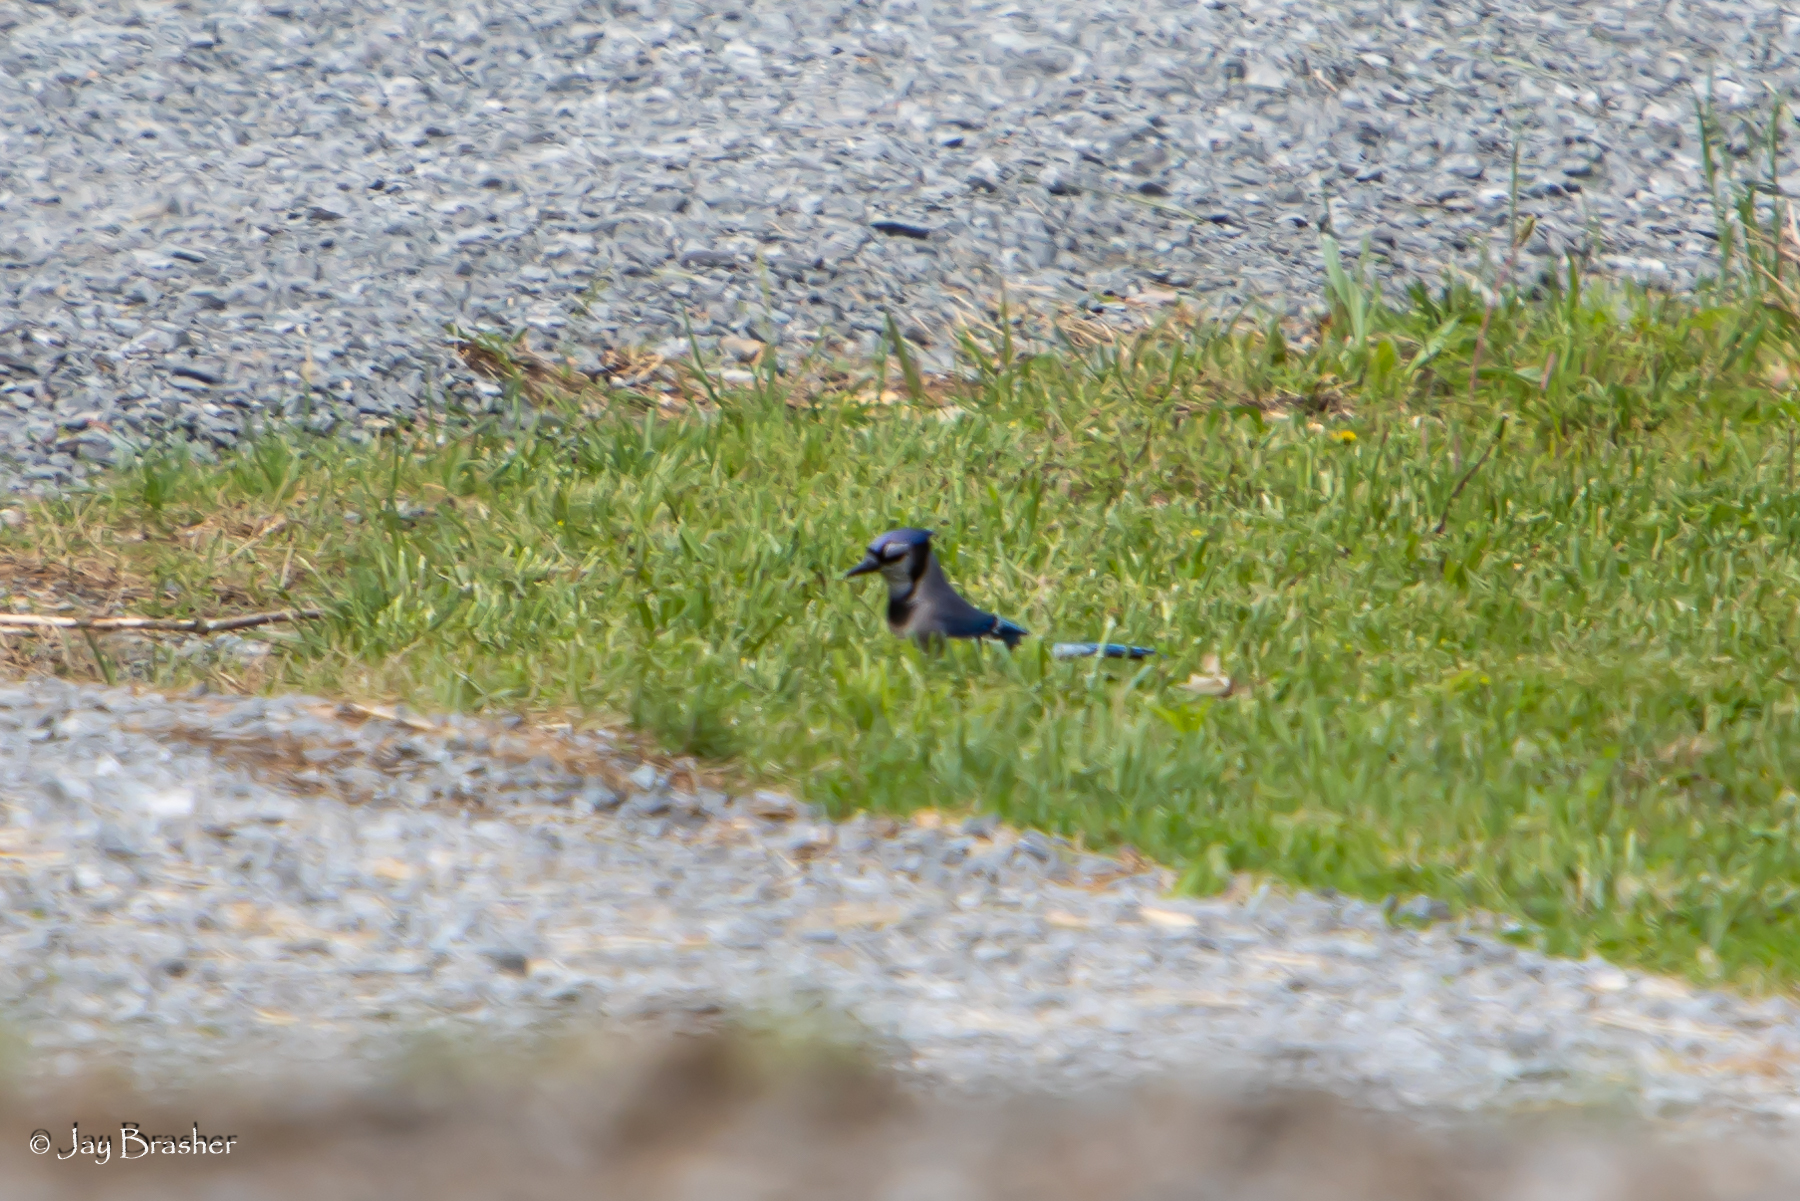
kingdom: Animalia
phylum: Chordata
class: Aves
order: Passeriformes
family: Corvidae
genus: Cyanocitta
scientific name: Cyanocitta cristata
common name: Blue jay
